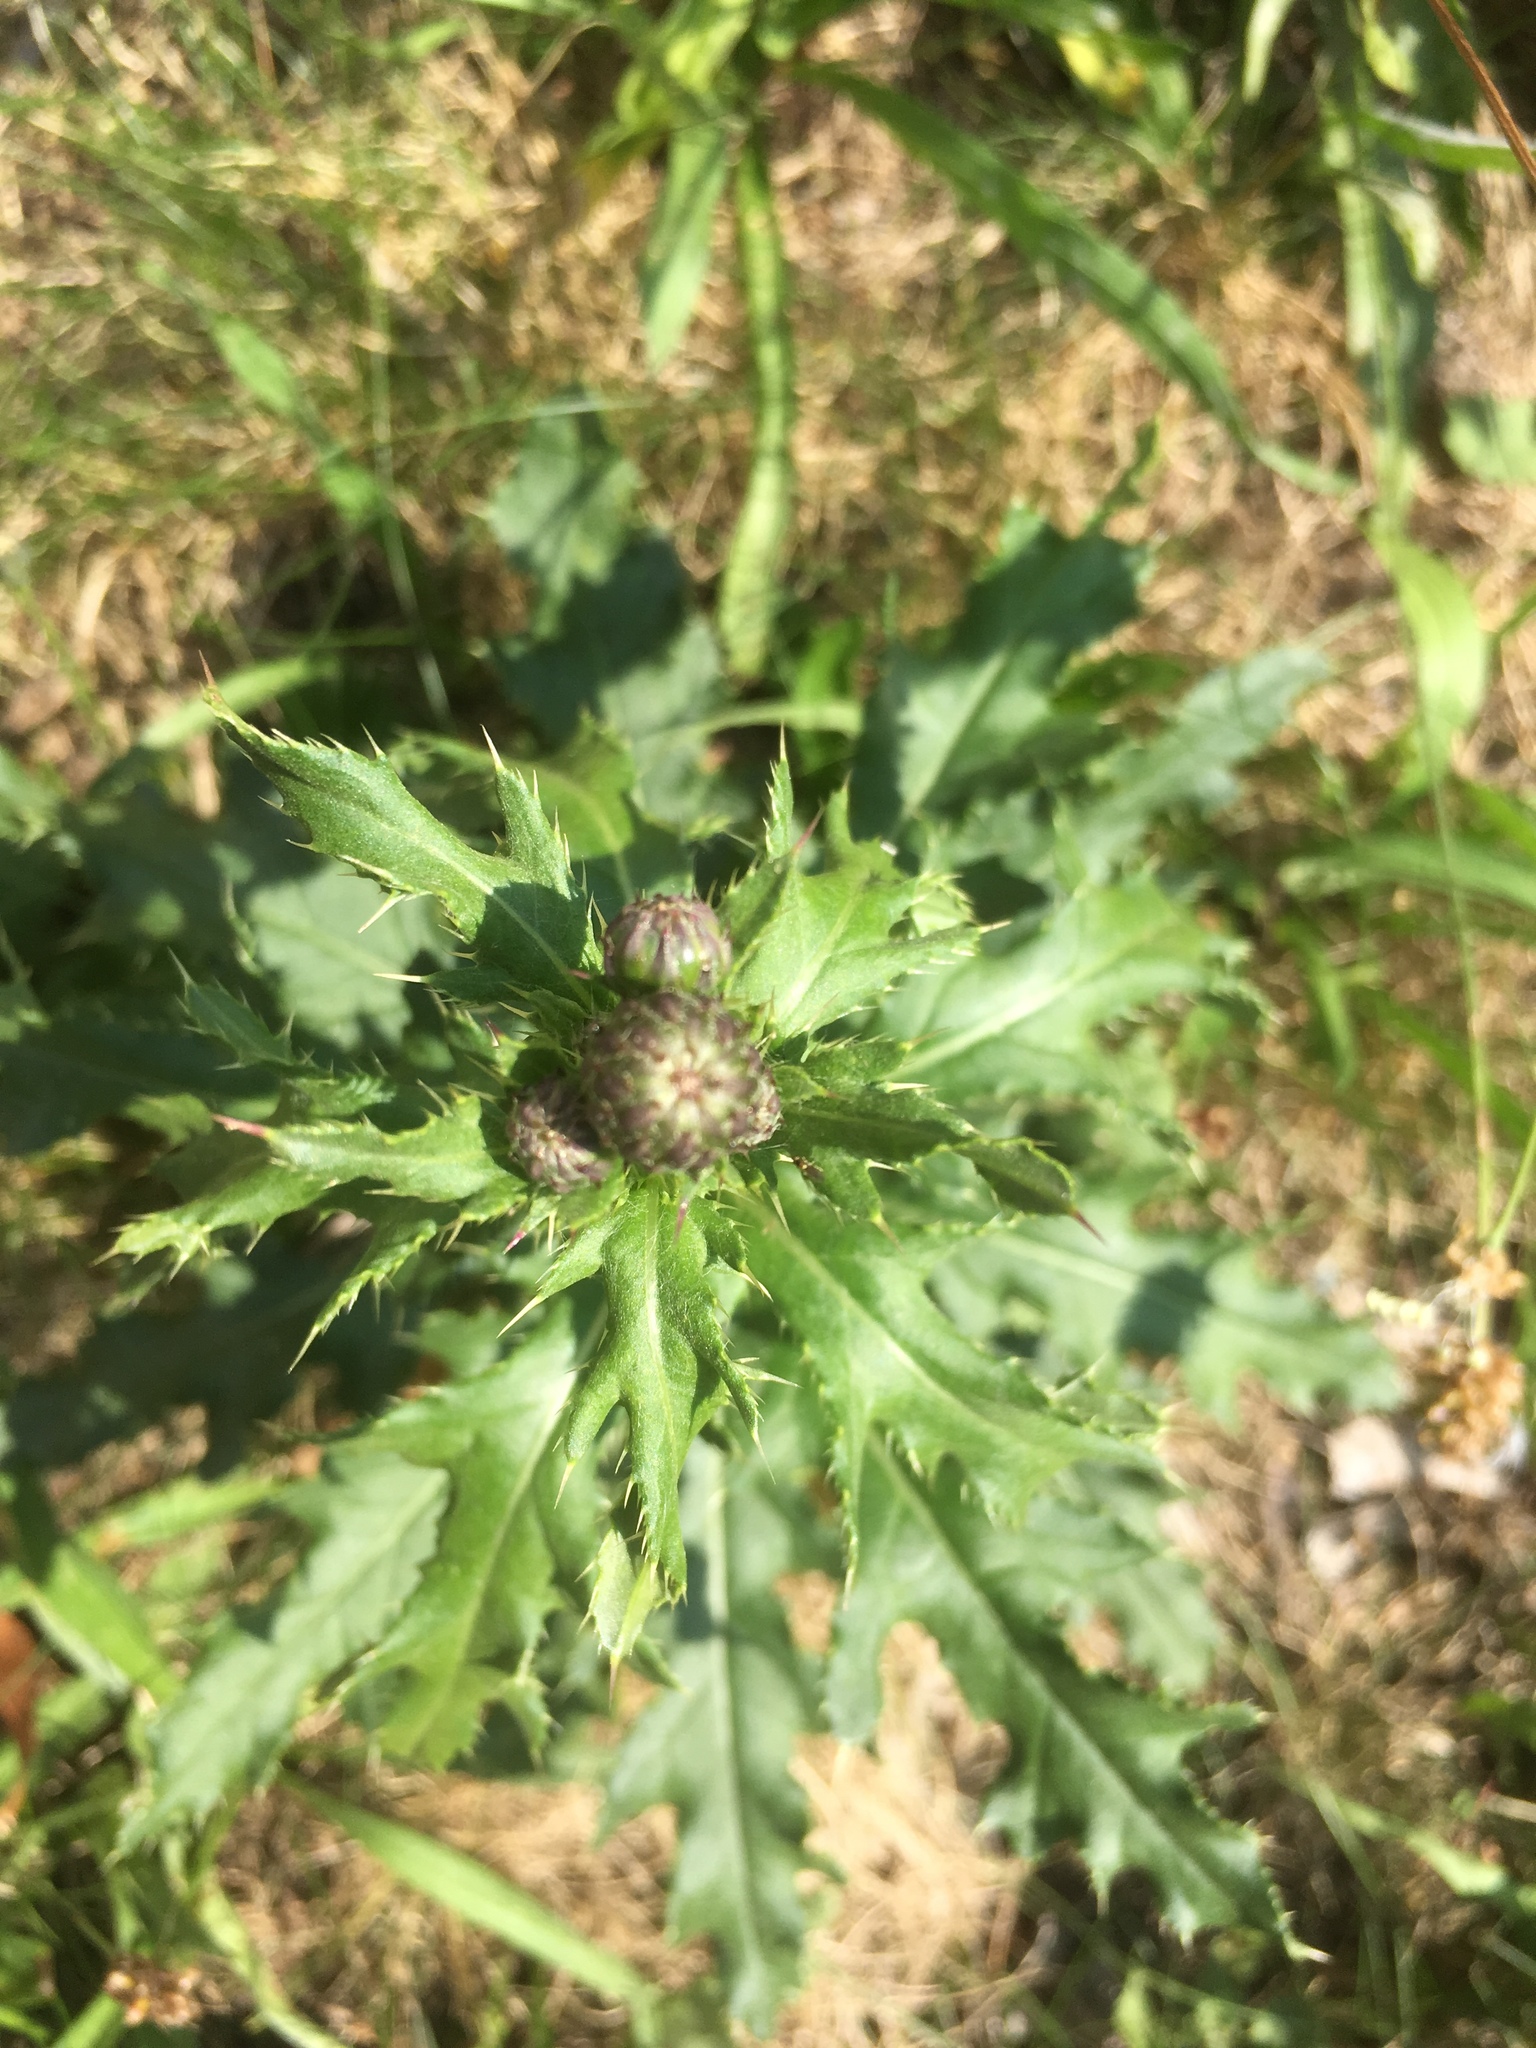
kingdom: Plantae
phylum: Tracheophyta
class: Magnoliopsida
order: Asterales
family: Asteraceae
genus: Cirsium
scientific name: Cirsium arvense
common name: Creeping thistle
